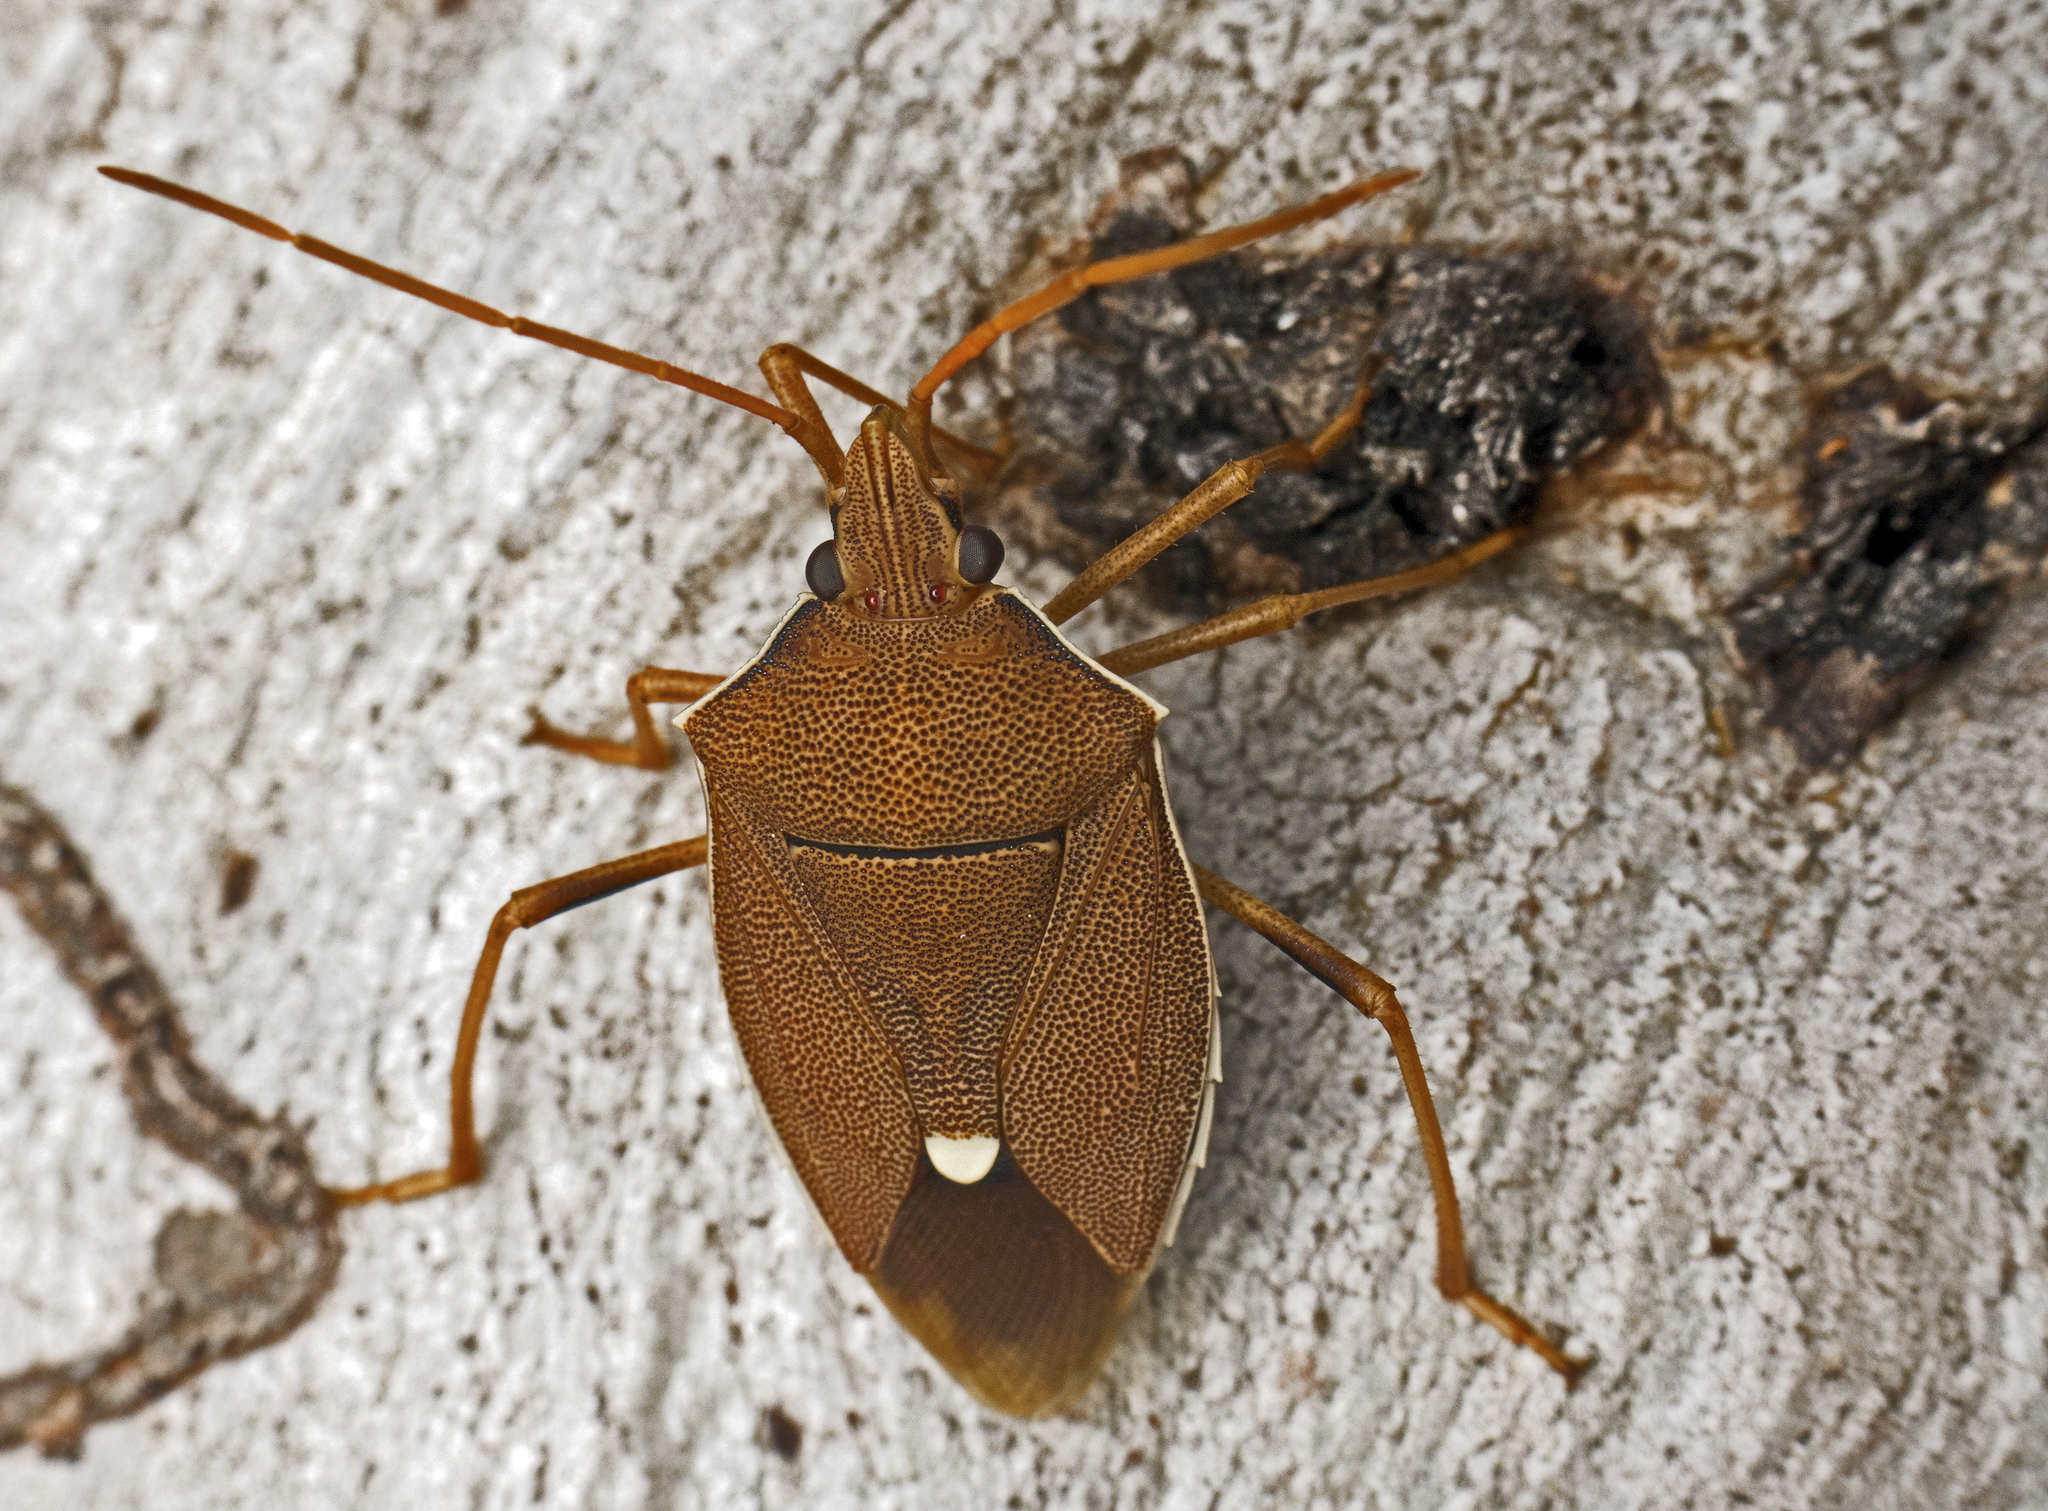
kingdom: Animalia
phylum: Arthropoda
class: Insecta
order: Hemiptera
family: Pentatomidae
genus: Poecilometis
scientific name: Poecilometis
